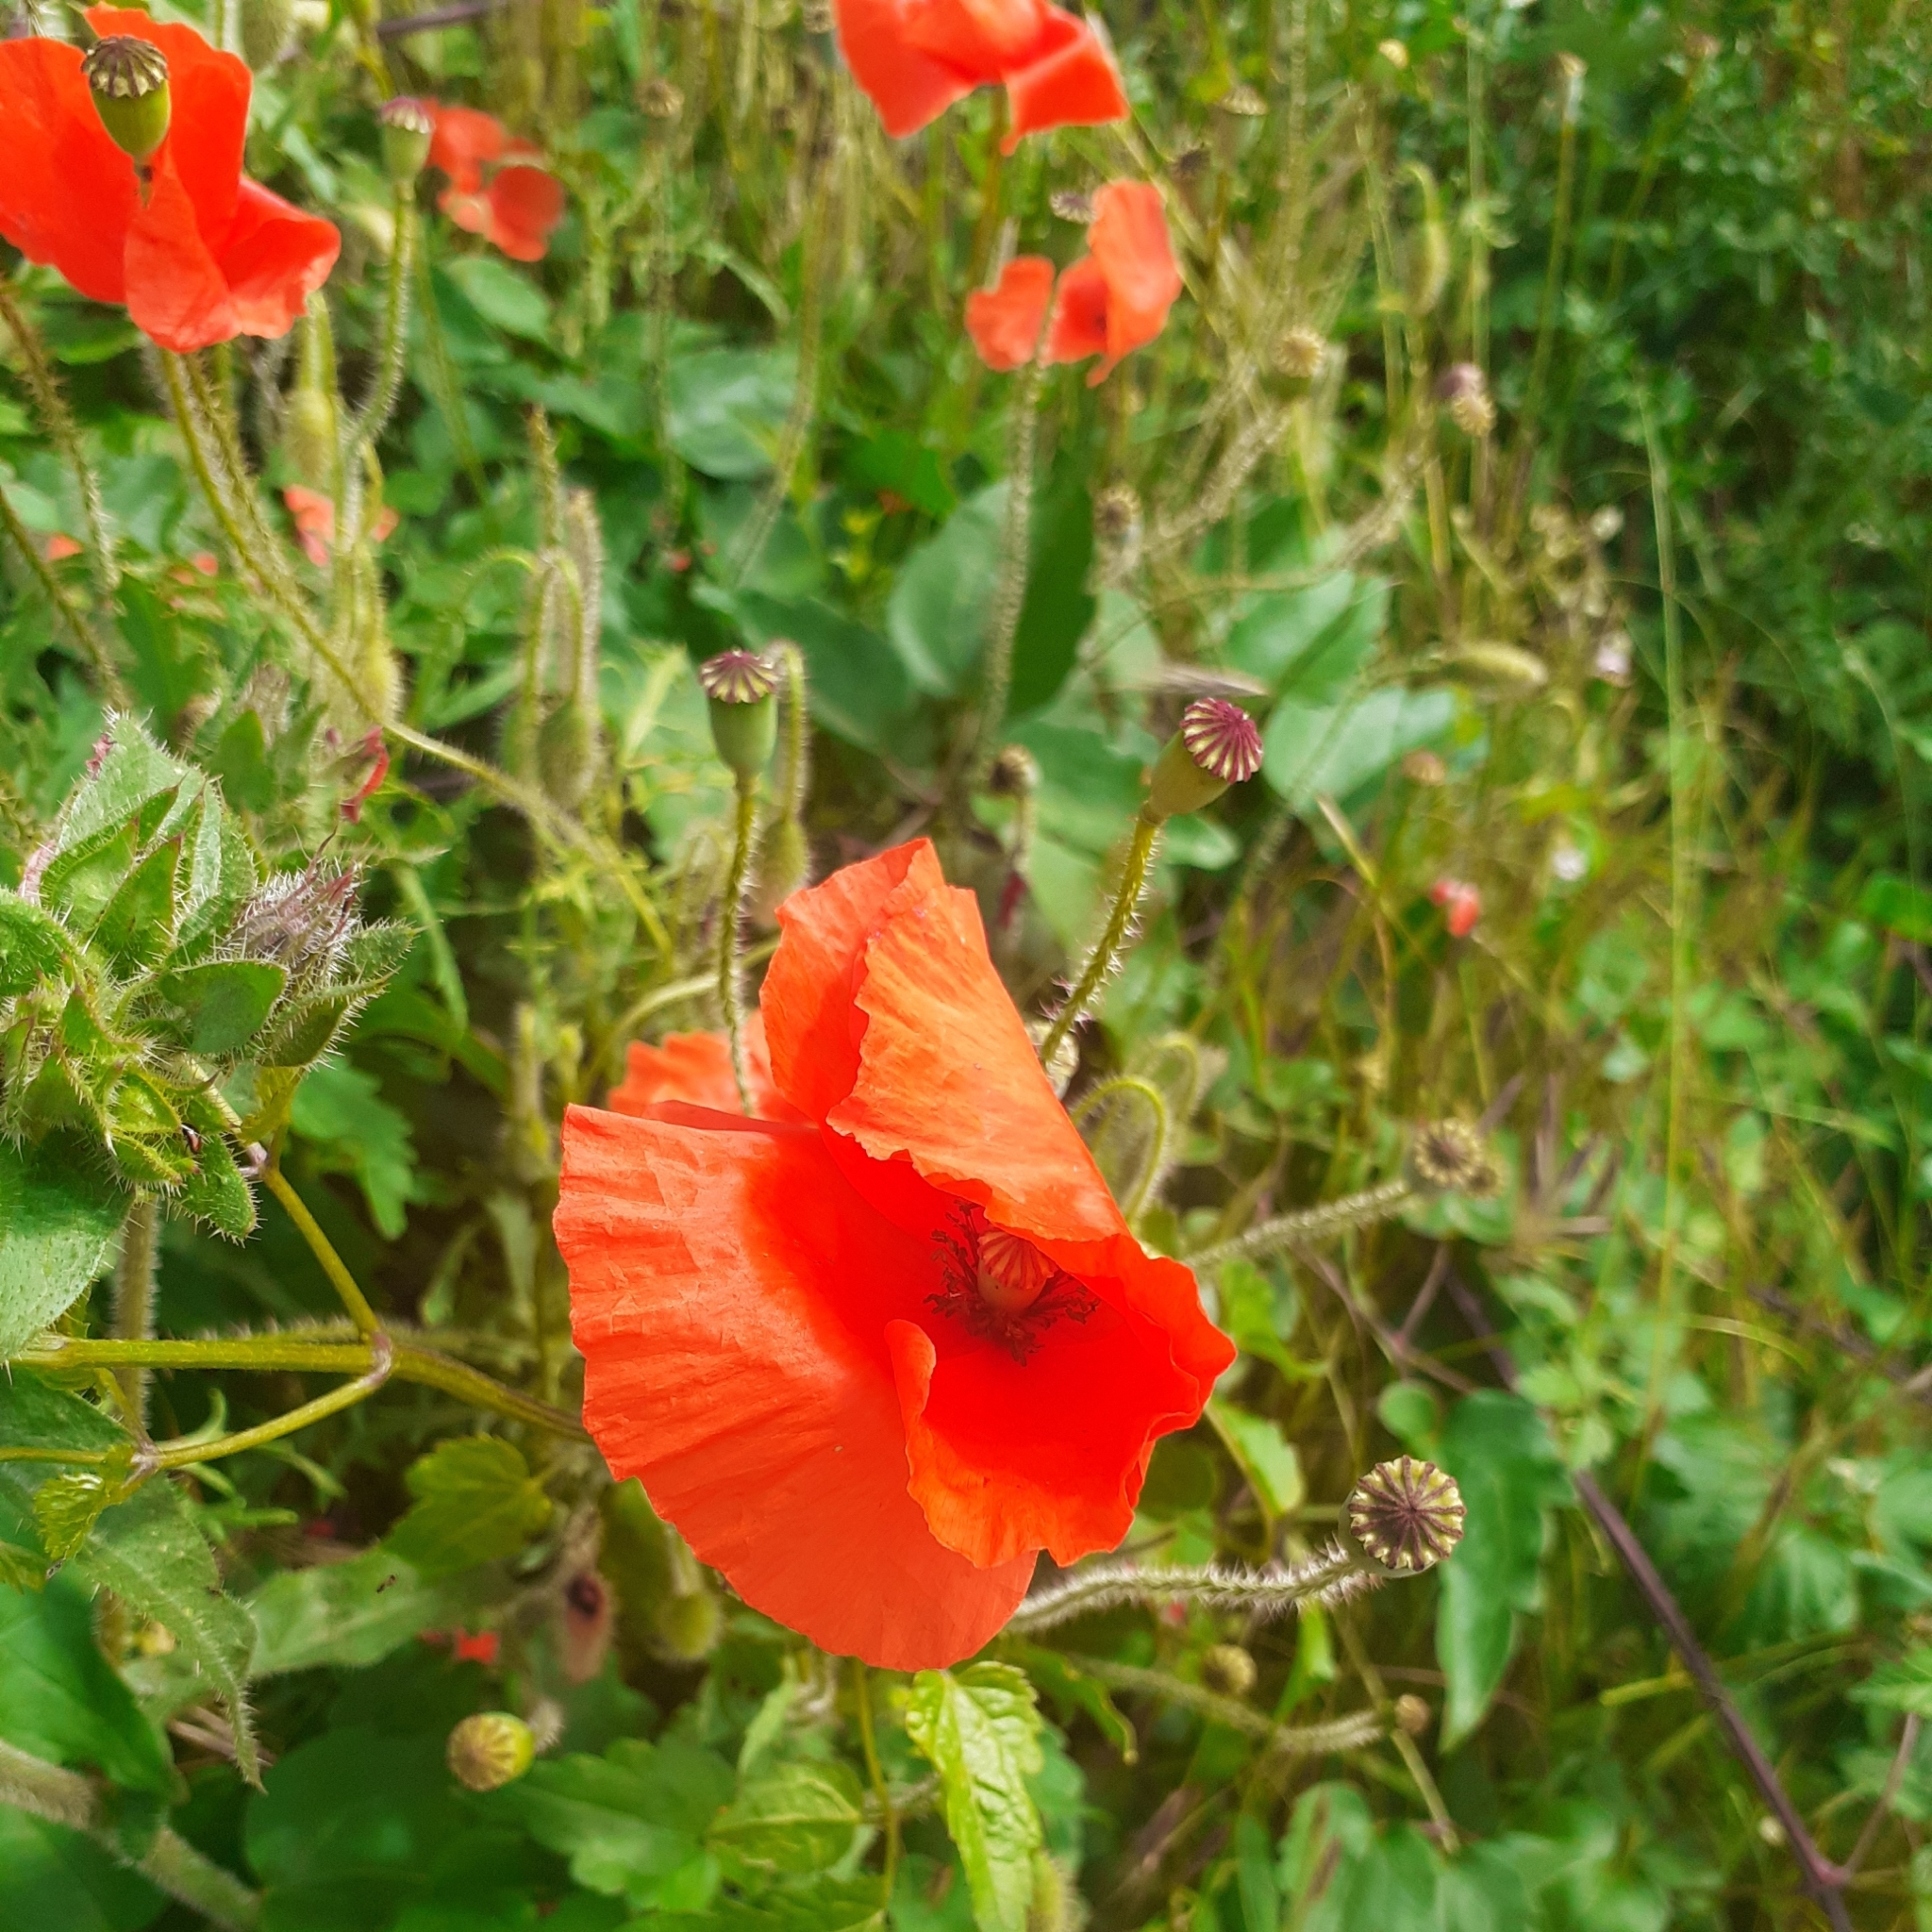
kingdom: Plantae
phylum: Tracheophyta
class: Magnoliopsida
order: Ranunculales
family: Papaveraceae
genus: Papaver
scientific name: Papaver rhoeas
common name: Corn poppy
